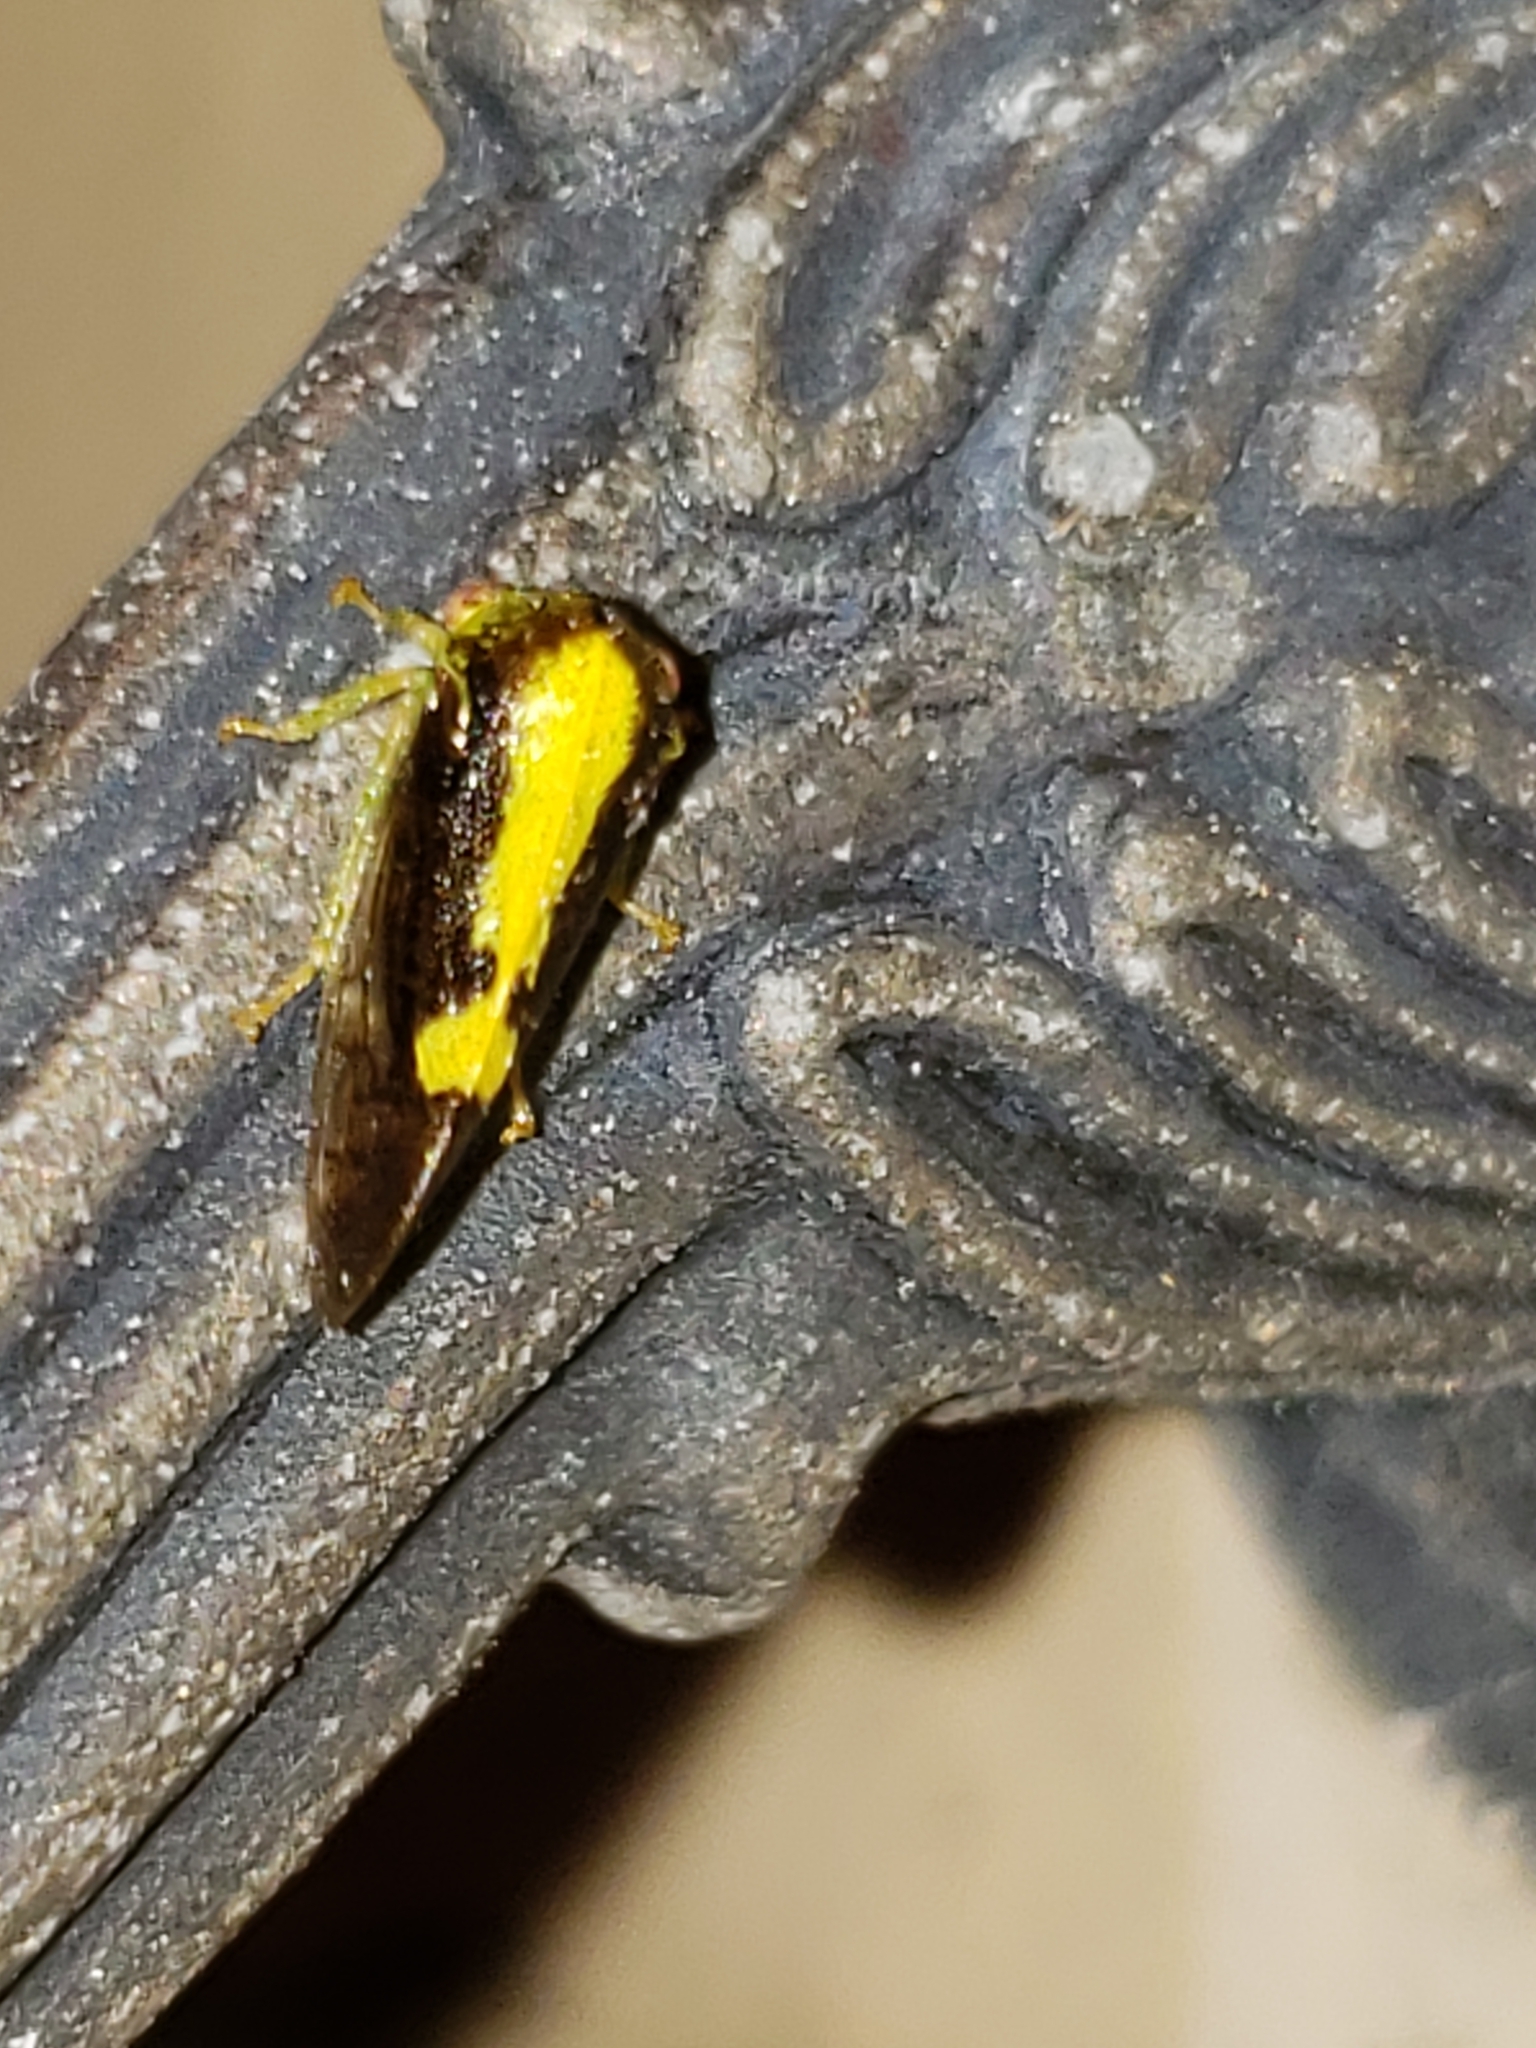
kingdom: Animalia
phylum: Arthropoda
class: Insecta
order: Hemiptera
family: Membracidae
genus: Atymna
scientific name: Atymna querci
